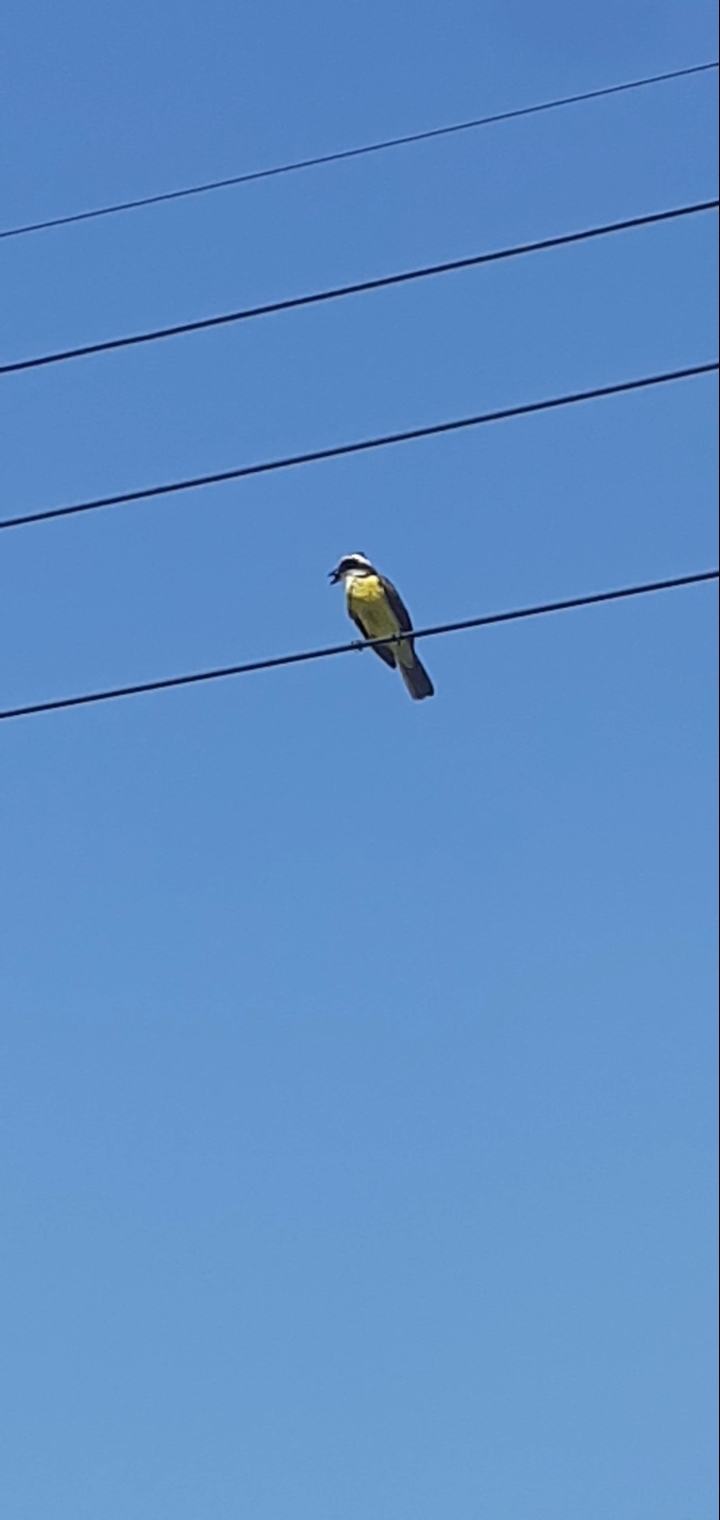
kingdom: Animalia
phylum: Chordata
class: Aves
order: Passeriformes
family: Tyrannidae
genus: Pitangus
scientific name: Pitangus sulphuratus
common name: Great kiskadee
